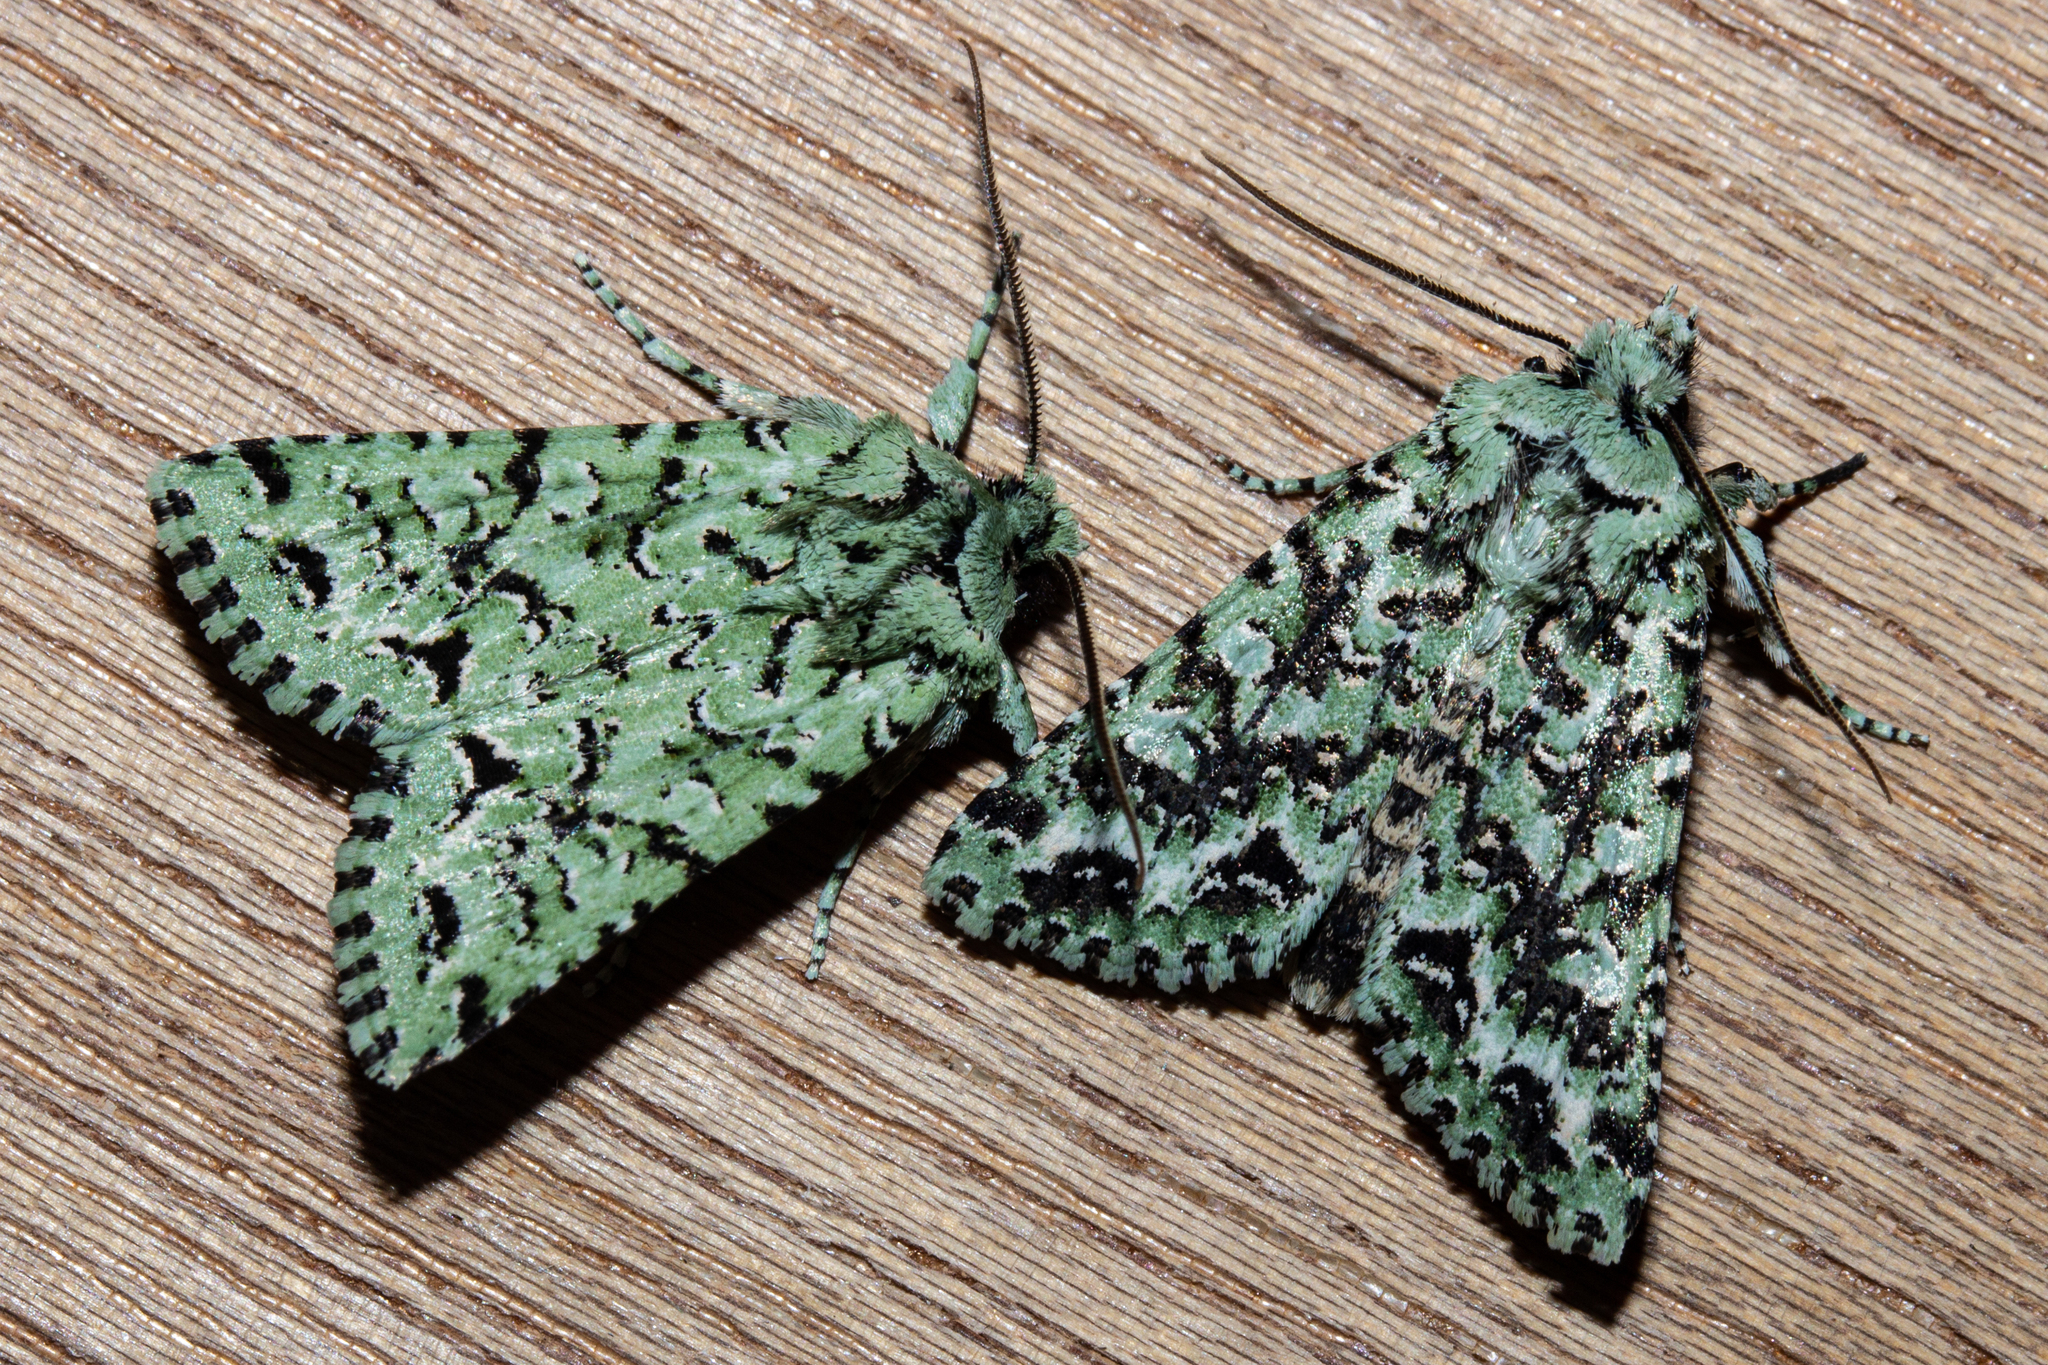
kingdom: Animalia
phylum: Arthropoda
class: Insecta
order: Lepidoptera
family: Noctuidae
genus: Meterana
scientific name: Meterana
